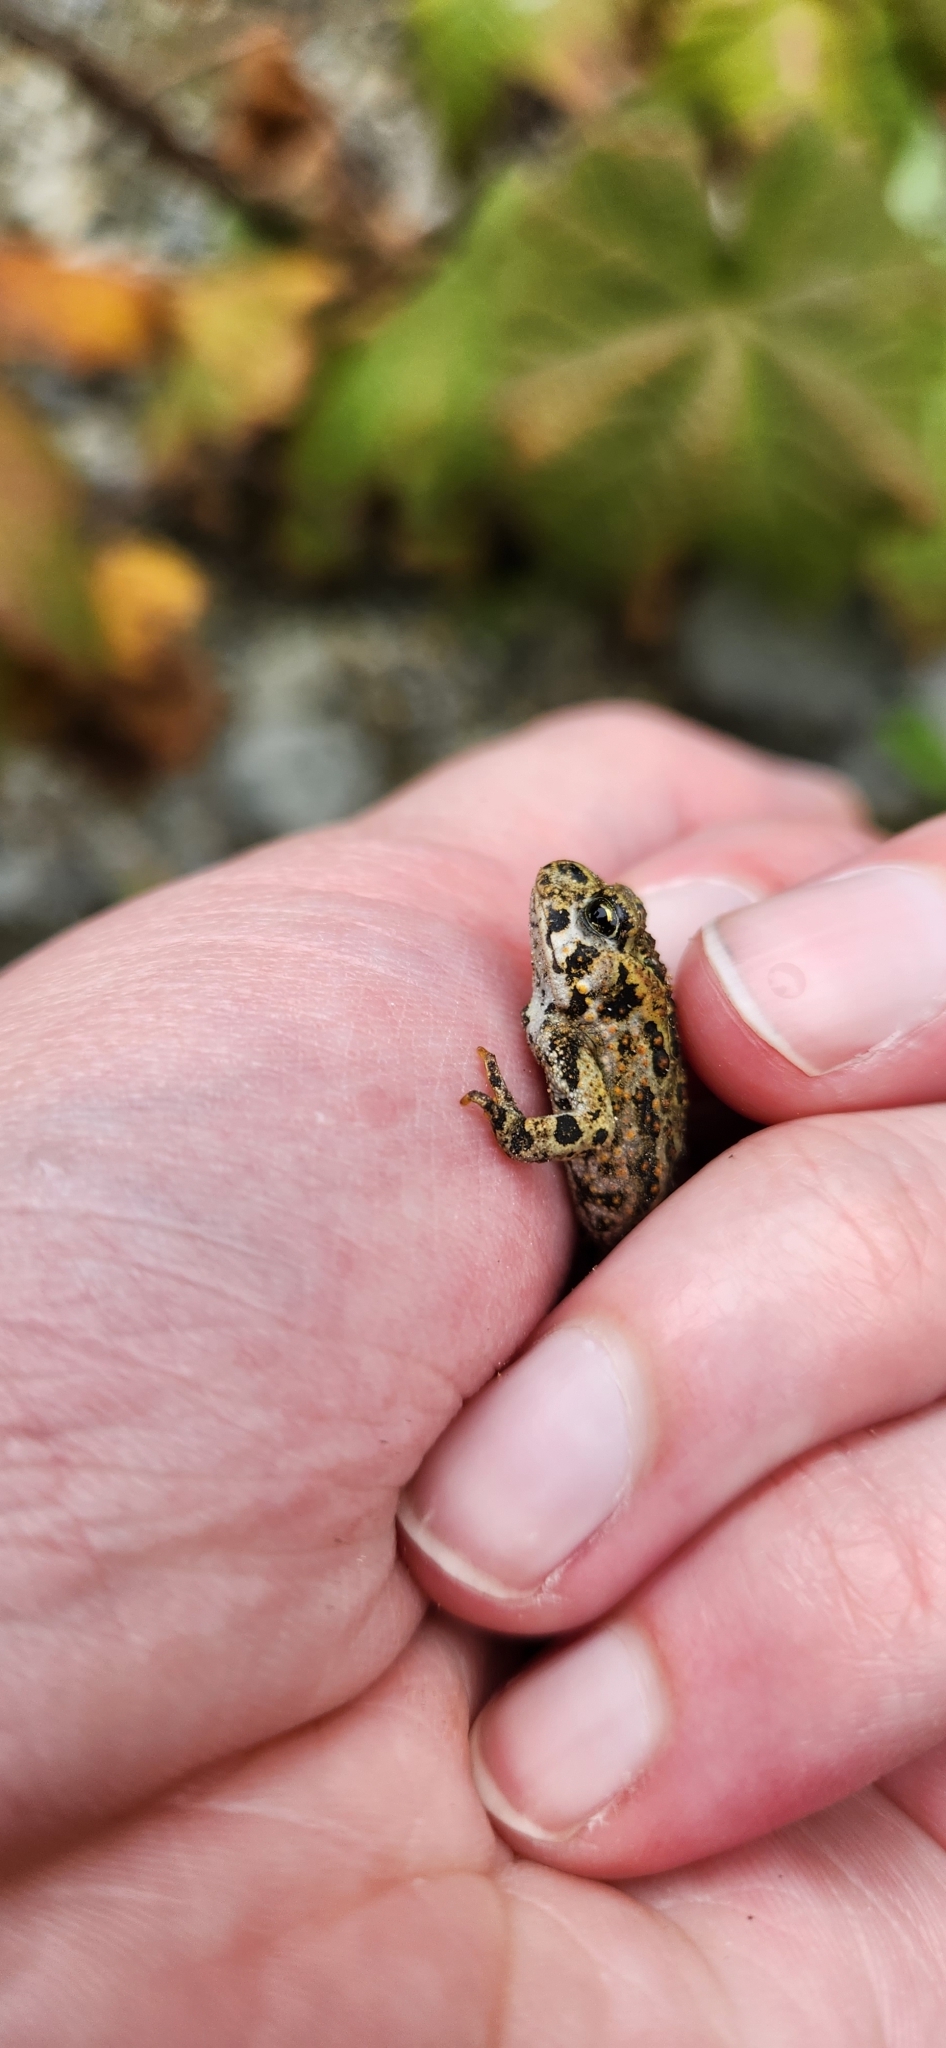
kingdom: Animalia
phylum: Chordata
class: Amphibia
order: Anura
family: Bufonidae
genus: Anaxyrus
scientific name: Anaxyrus boreas
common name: Western toad
